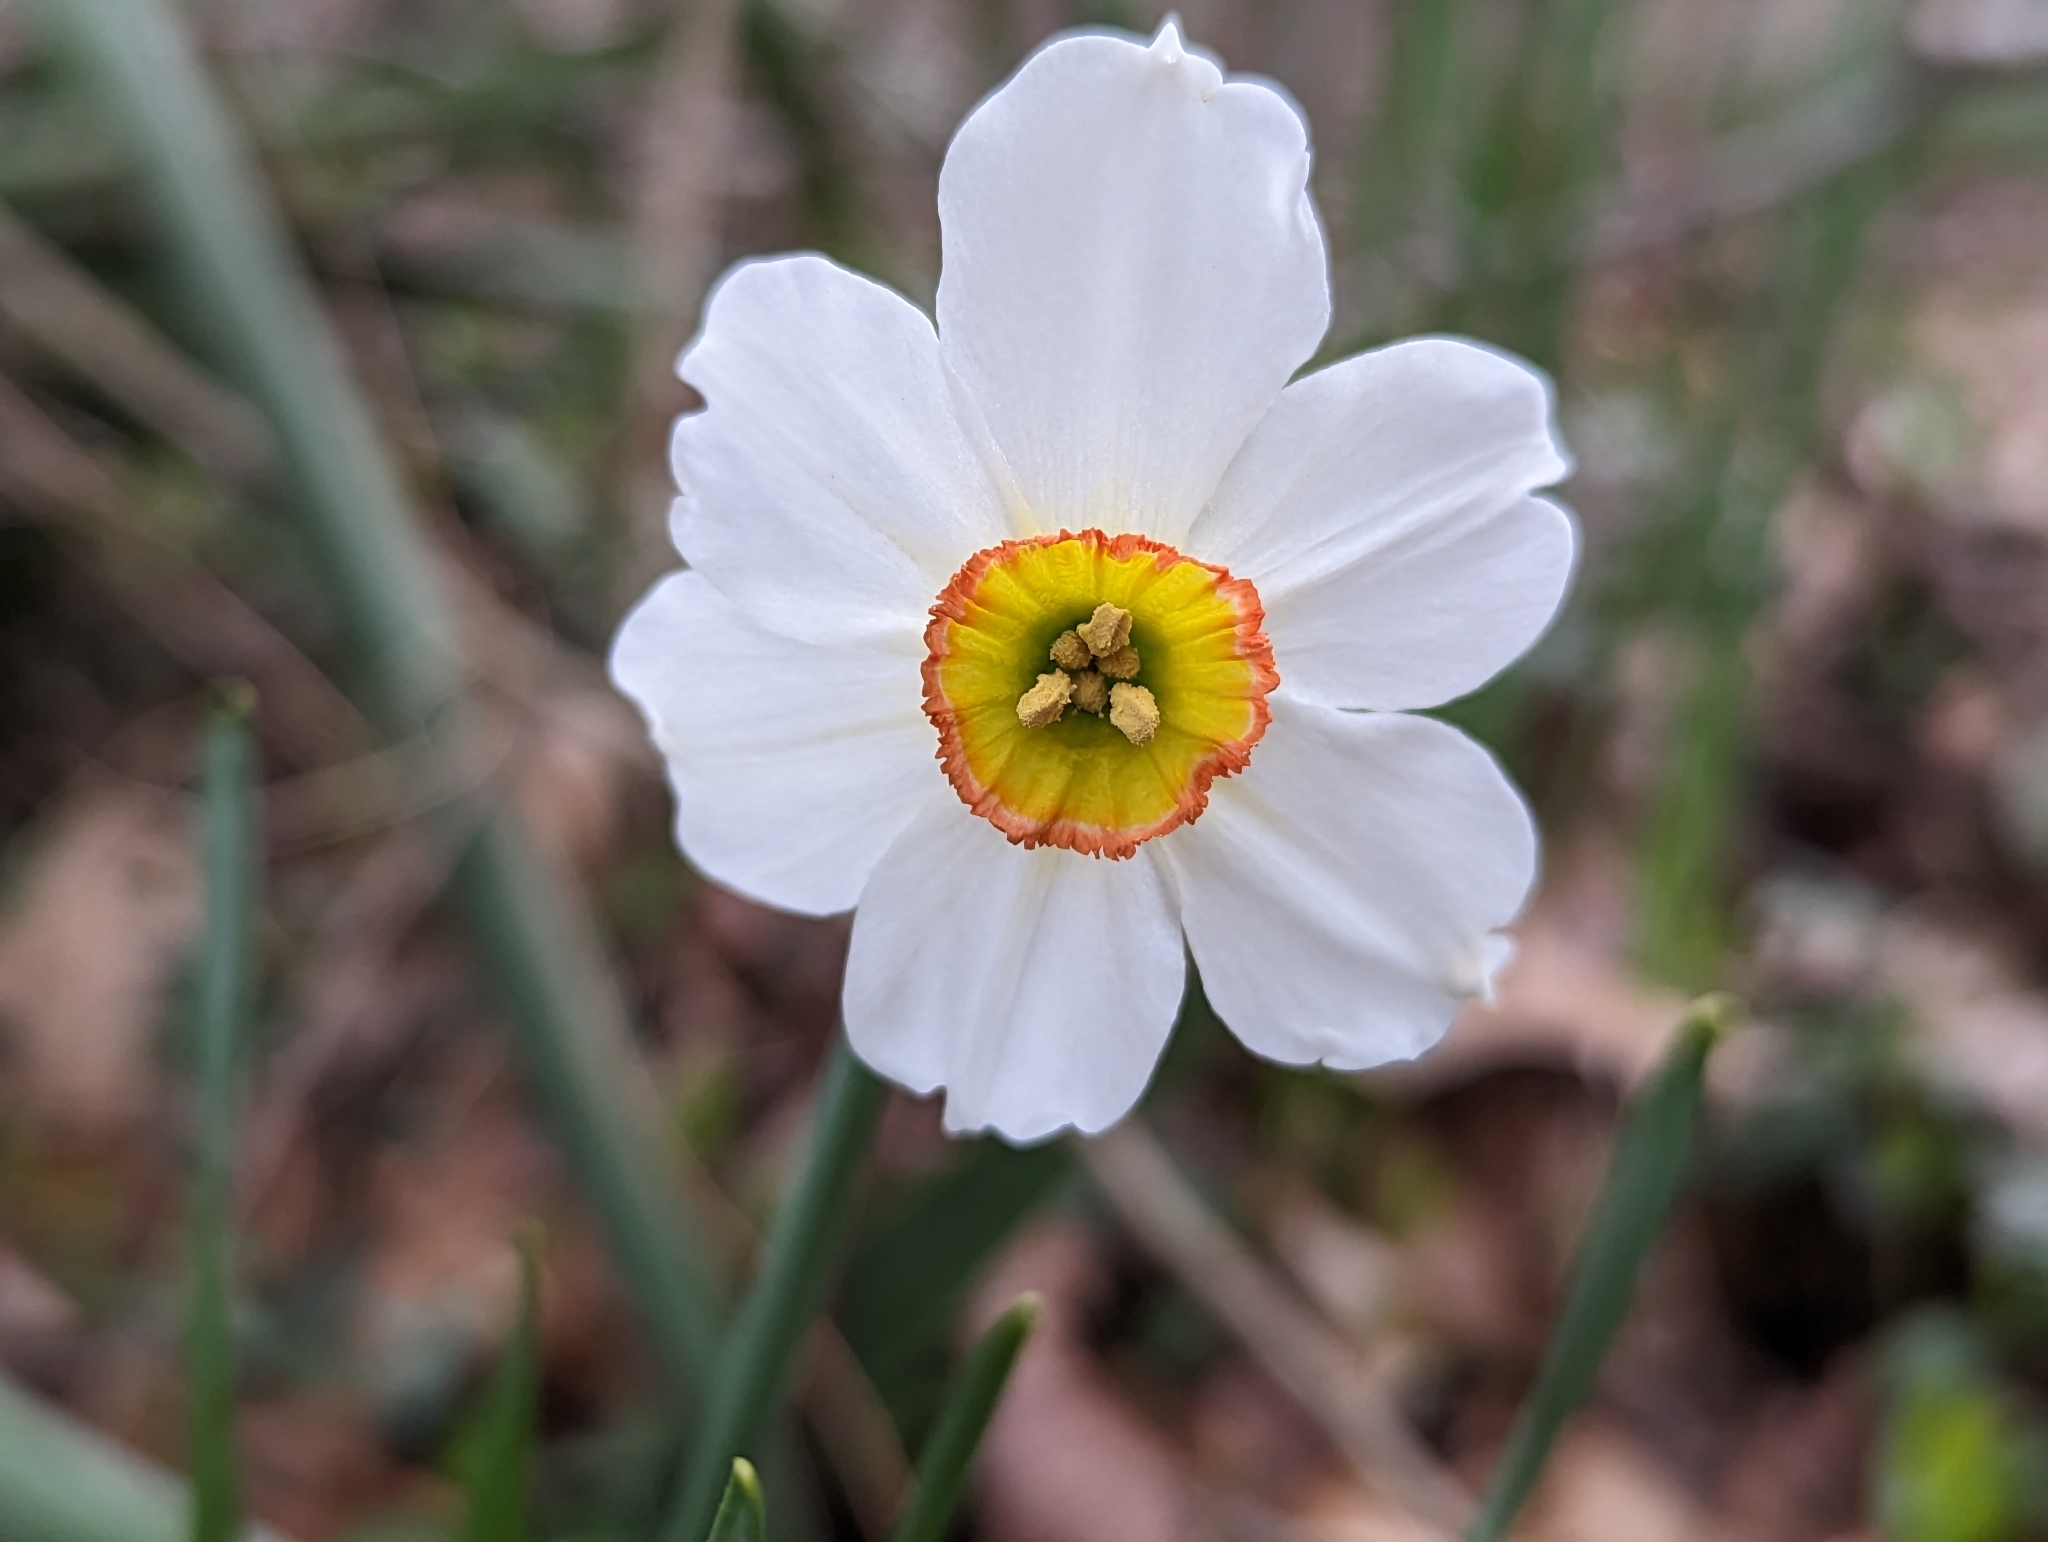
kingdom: Plantae
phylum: Tracheophyta
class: Liliopsida
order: Asparagales
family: Amaryllidaceae
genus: Narcissus
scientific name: Narcissus poeticus
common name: Pheasant's-eye daffodil
